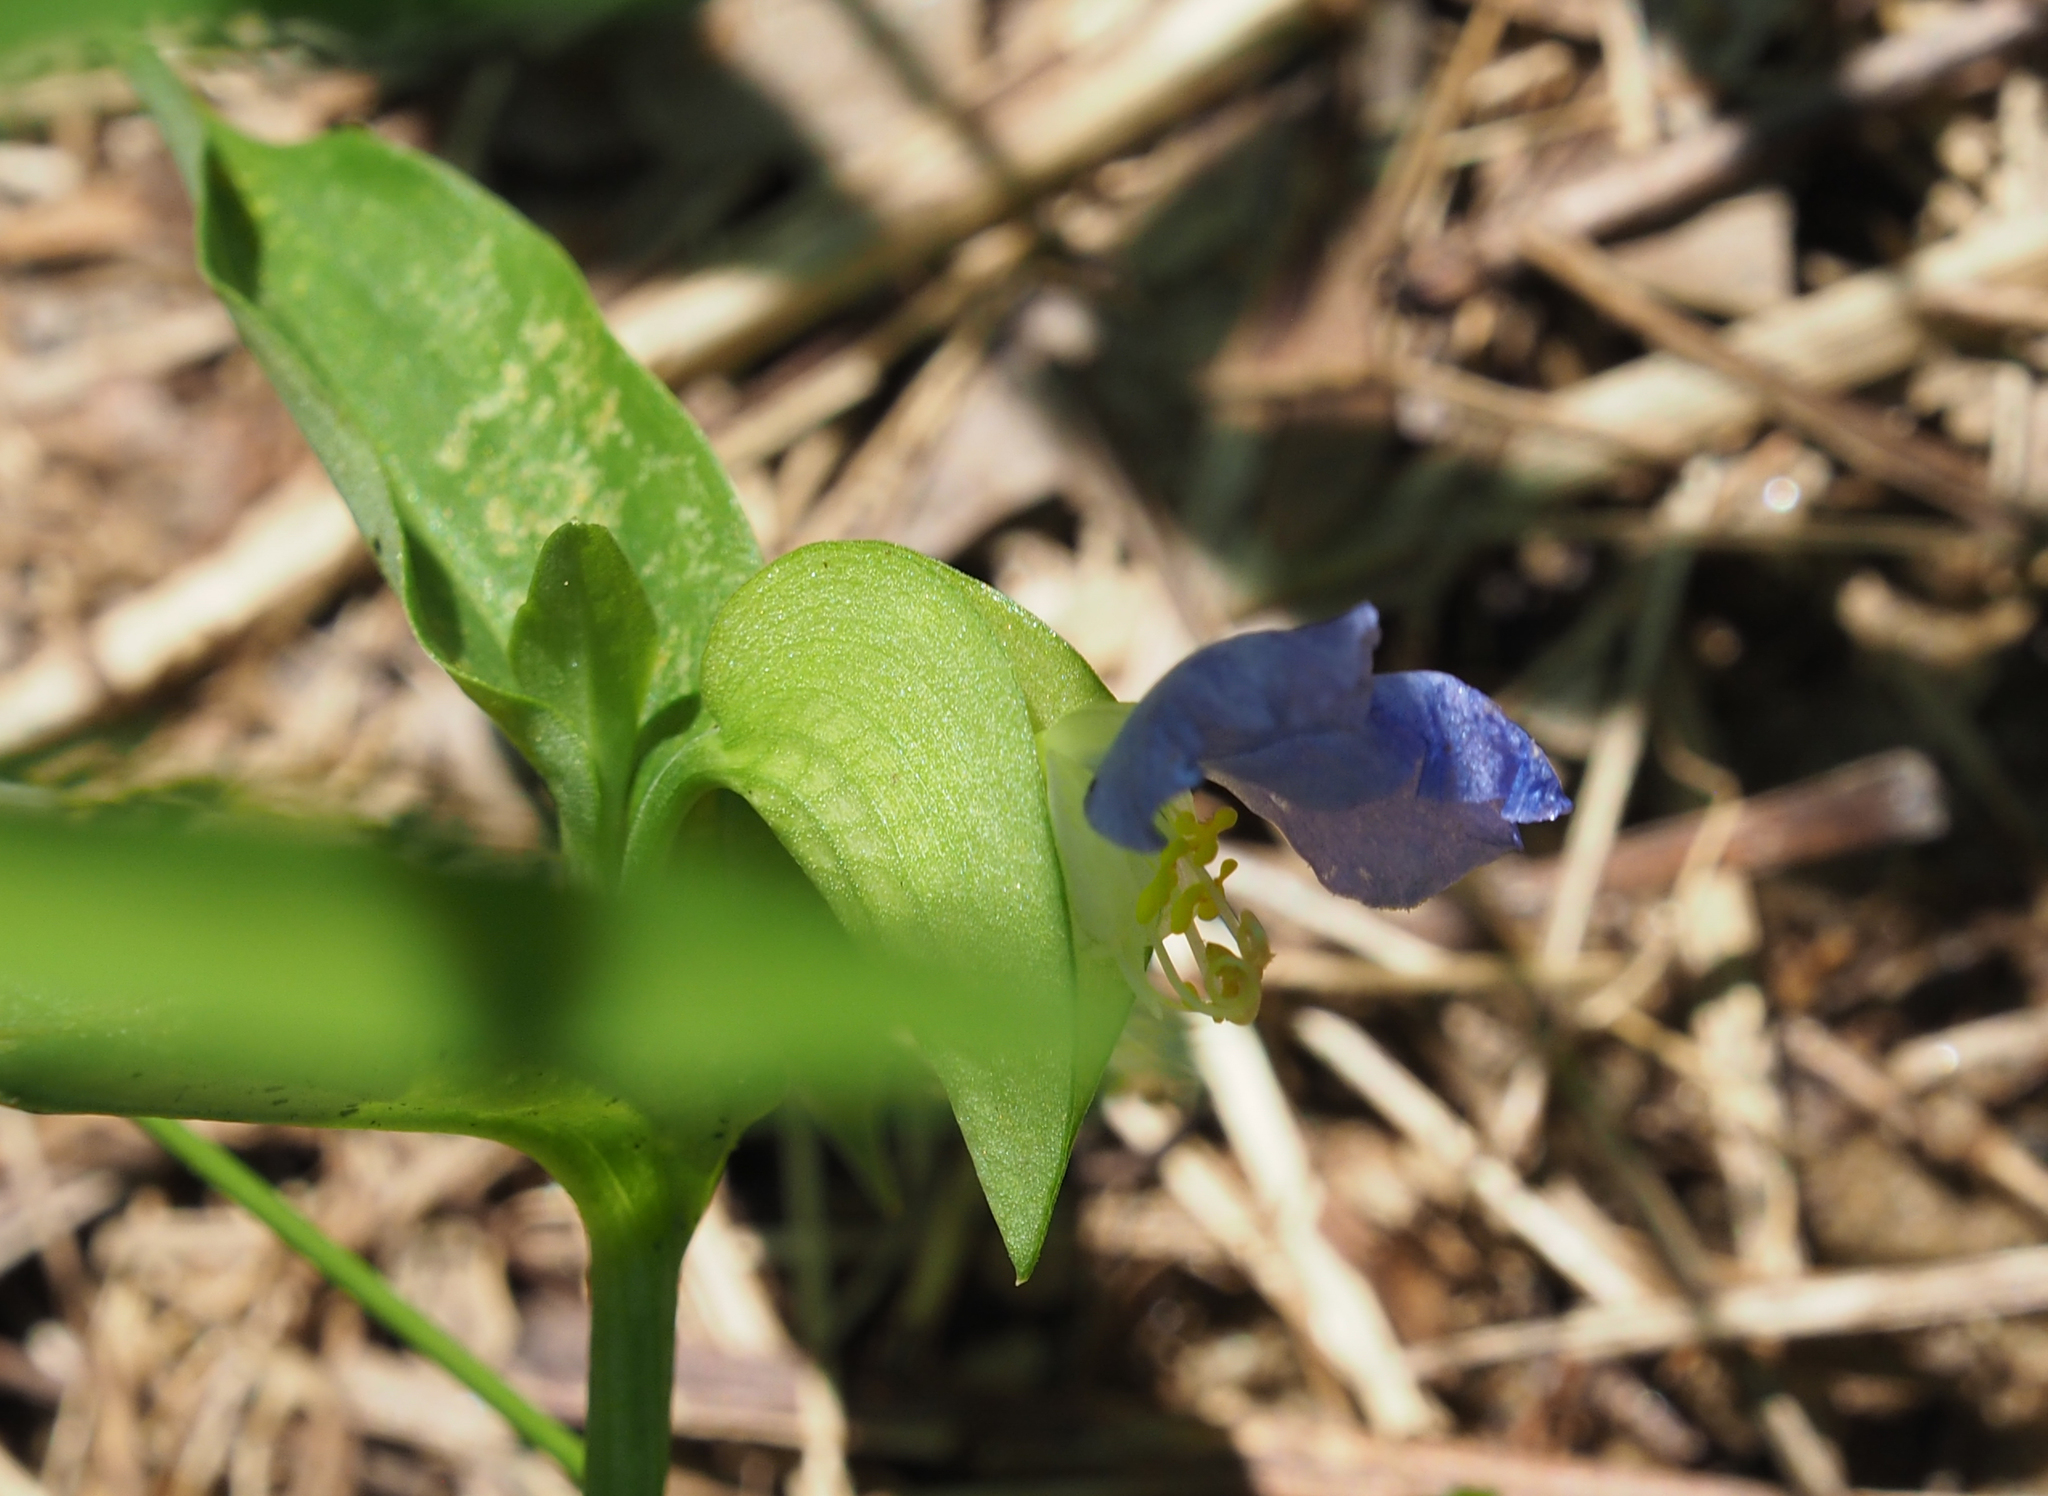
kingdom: Plantae
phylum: Tracheophyta
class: Liliopsida
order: Commelinales
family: Commelinaceae
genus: Commelina
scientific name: Commelina communis
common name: Asiatic dayflower
